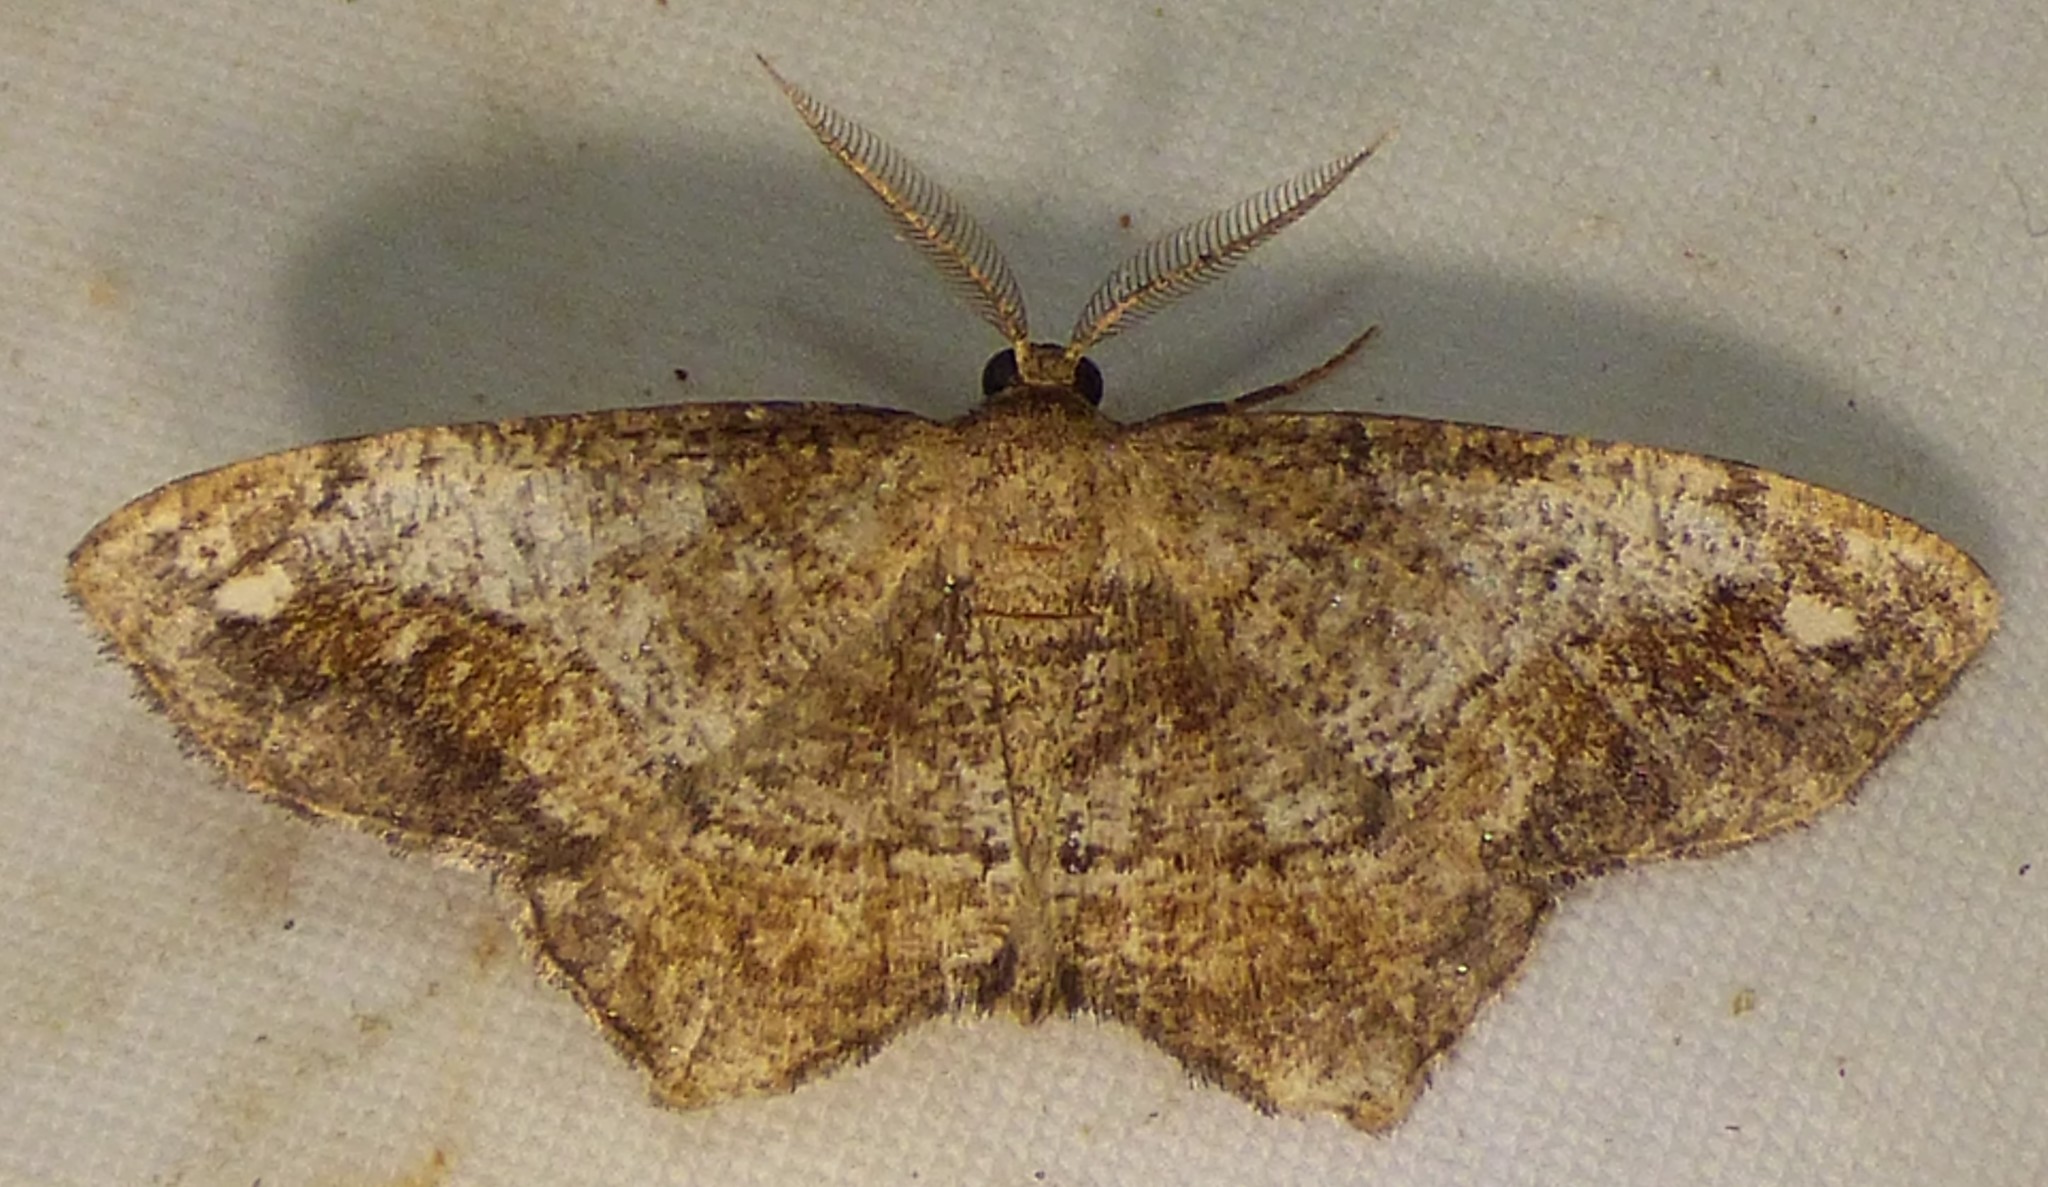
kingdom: Animalia
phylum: Arthropoda
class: Insecta
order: Lepidoptera
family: Geometridae
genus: Hypagyrtis
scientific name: Hypagyrtis unipunctata
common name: One-spotted variant
